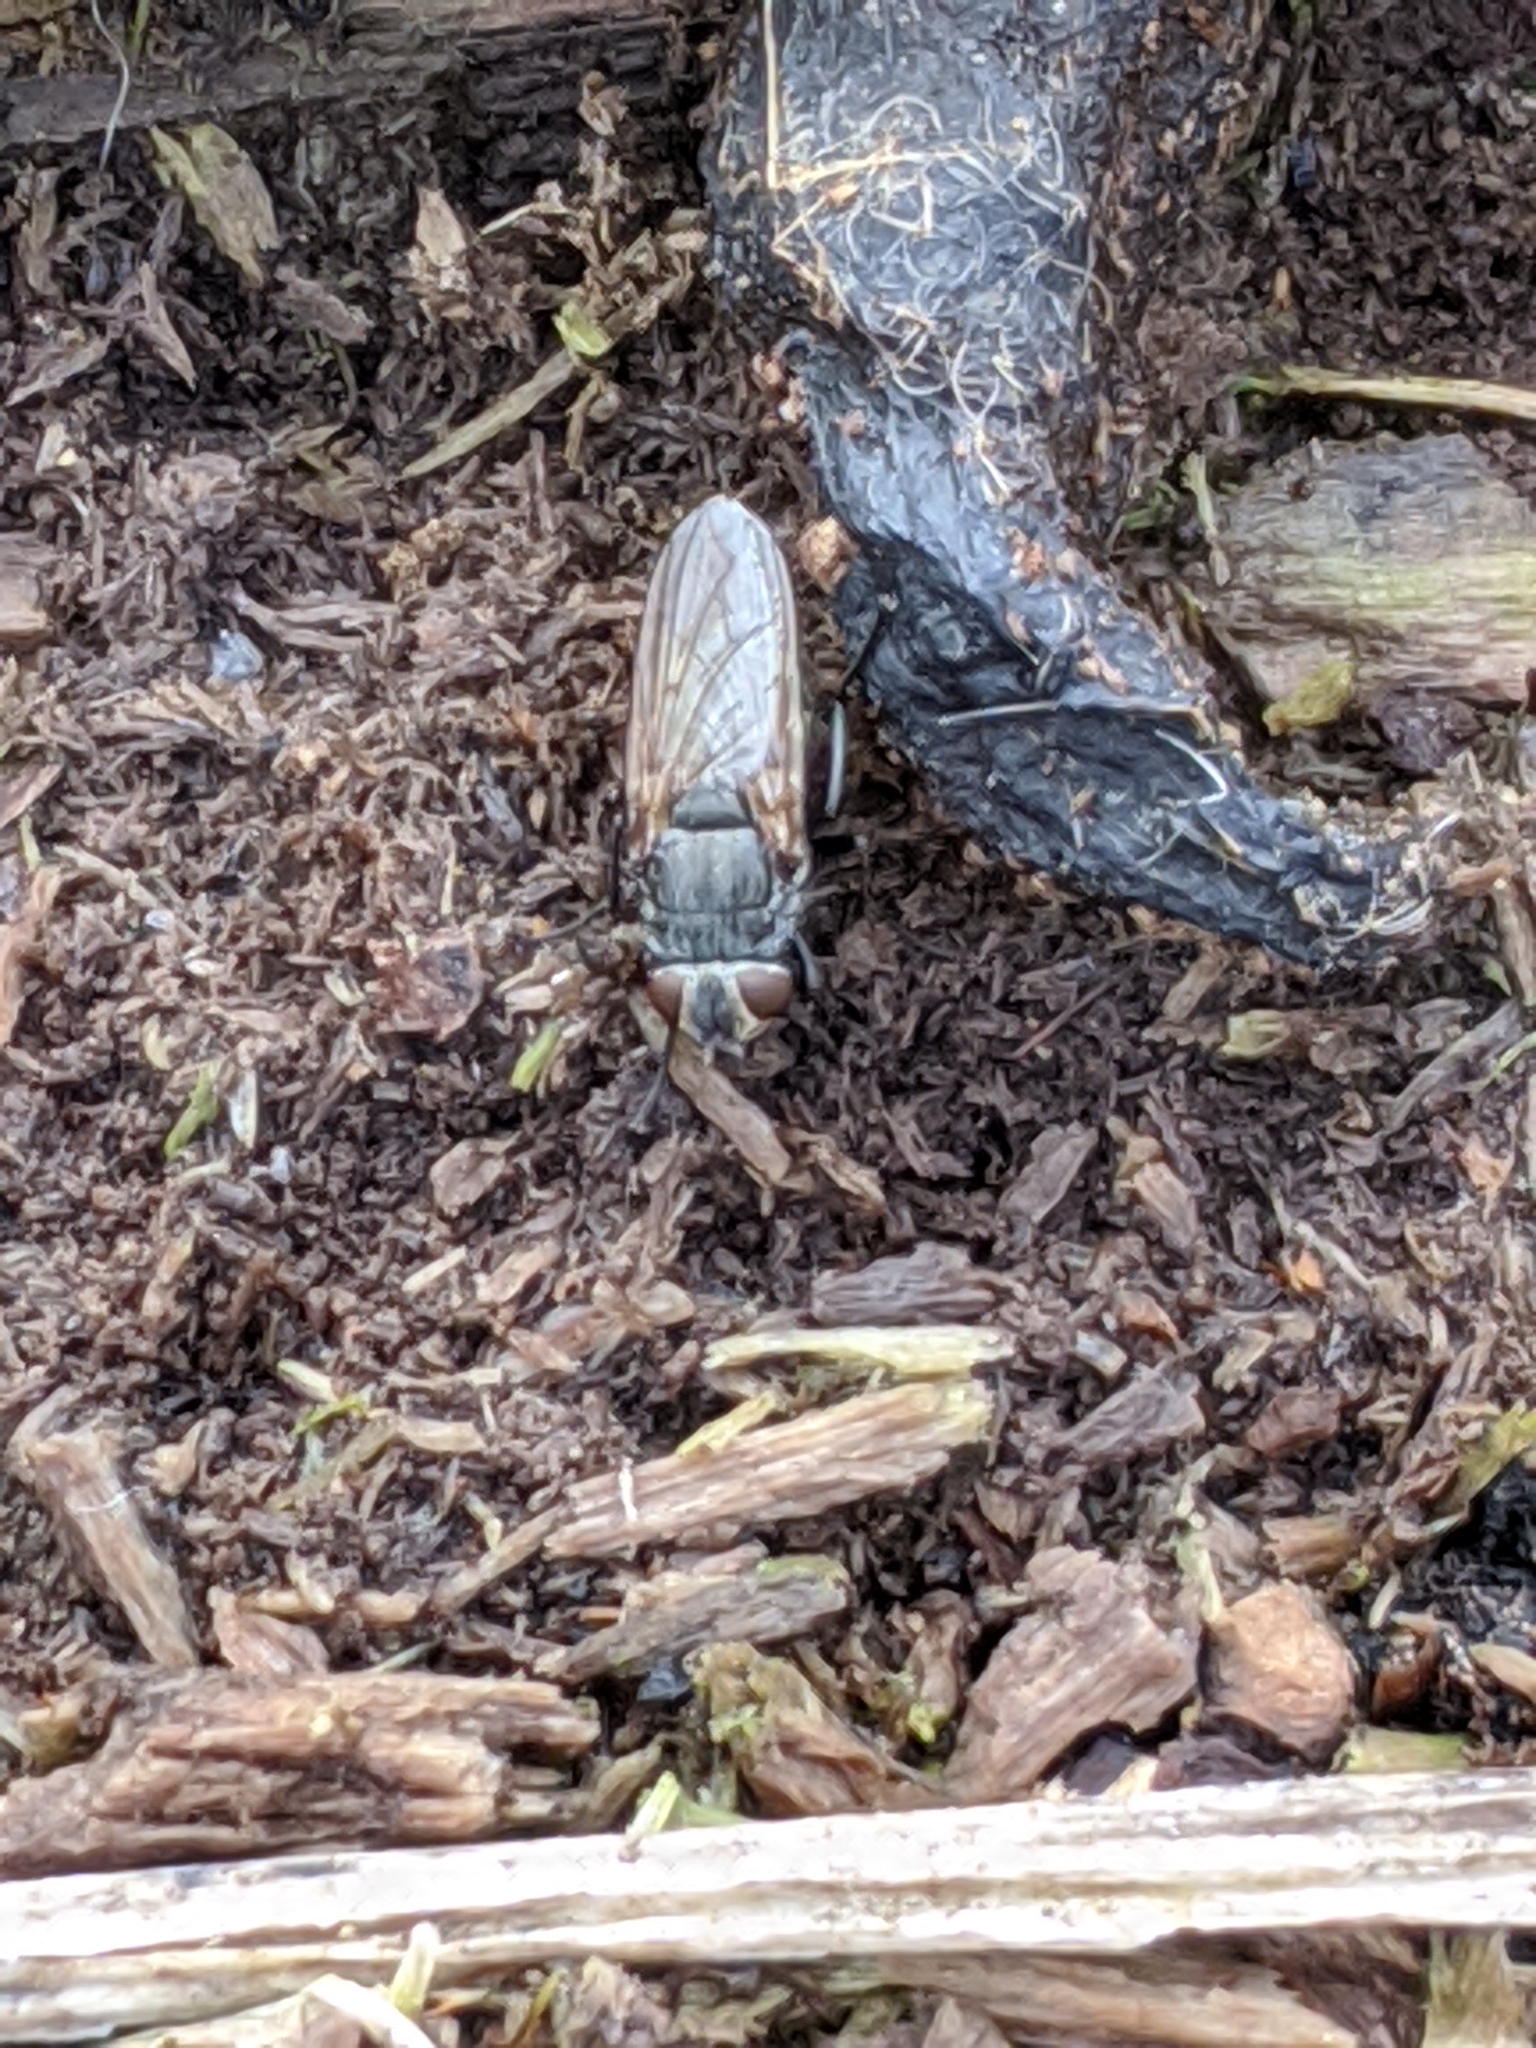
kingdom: Animalia
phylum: Arthropoda
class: Insecta
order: Diptera
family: Polleniidae
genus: Pollenia
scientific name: Pollenia
